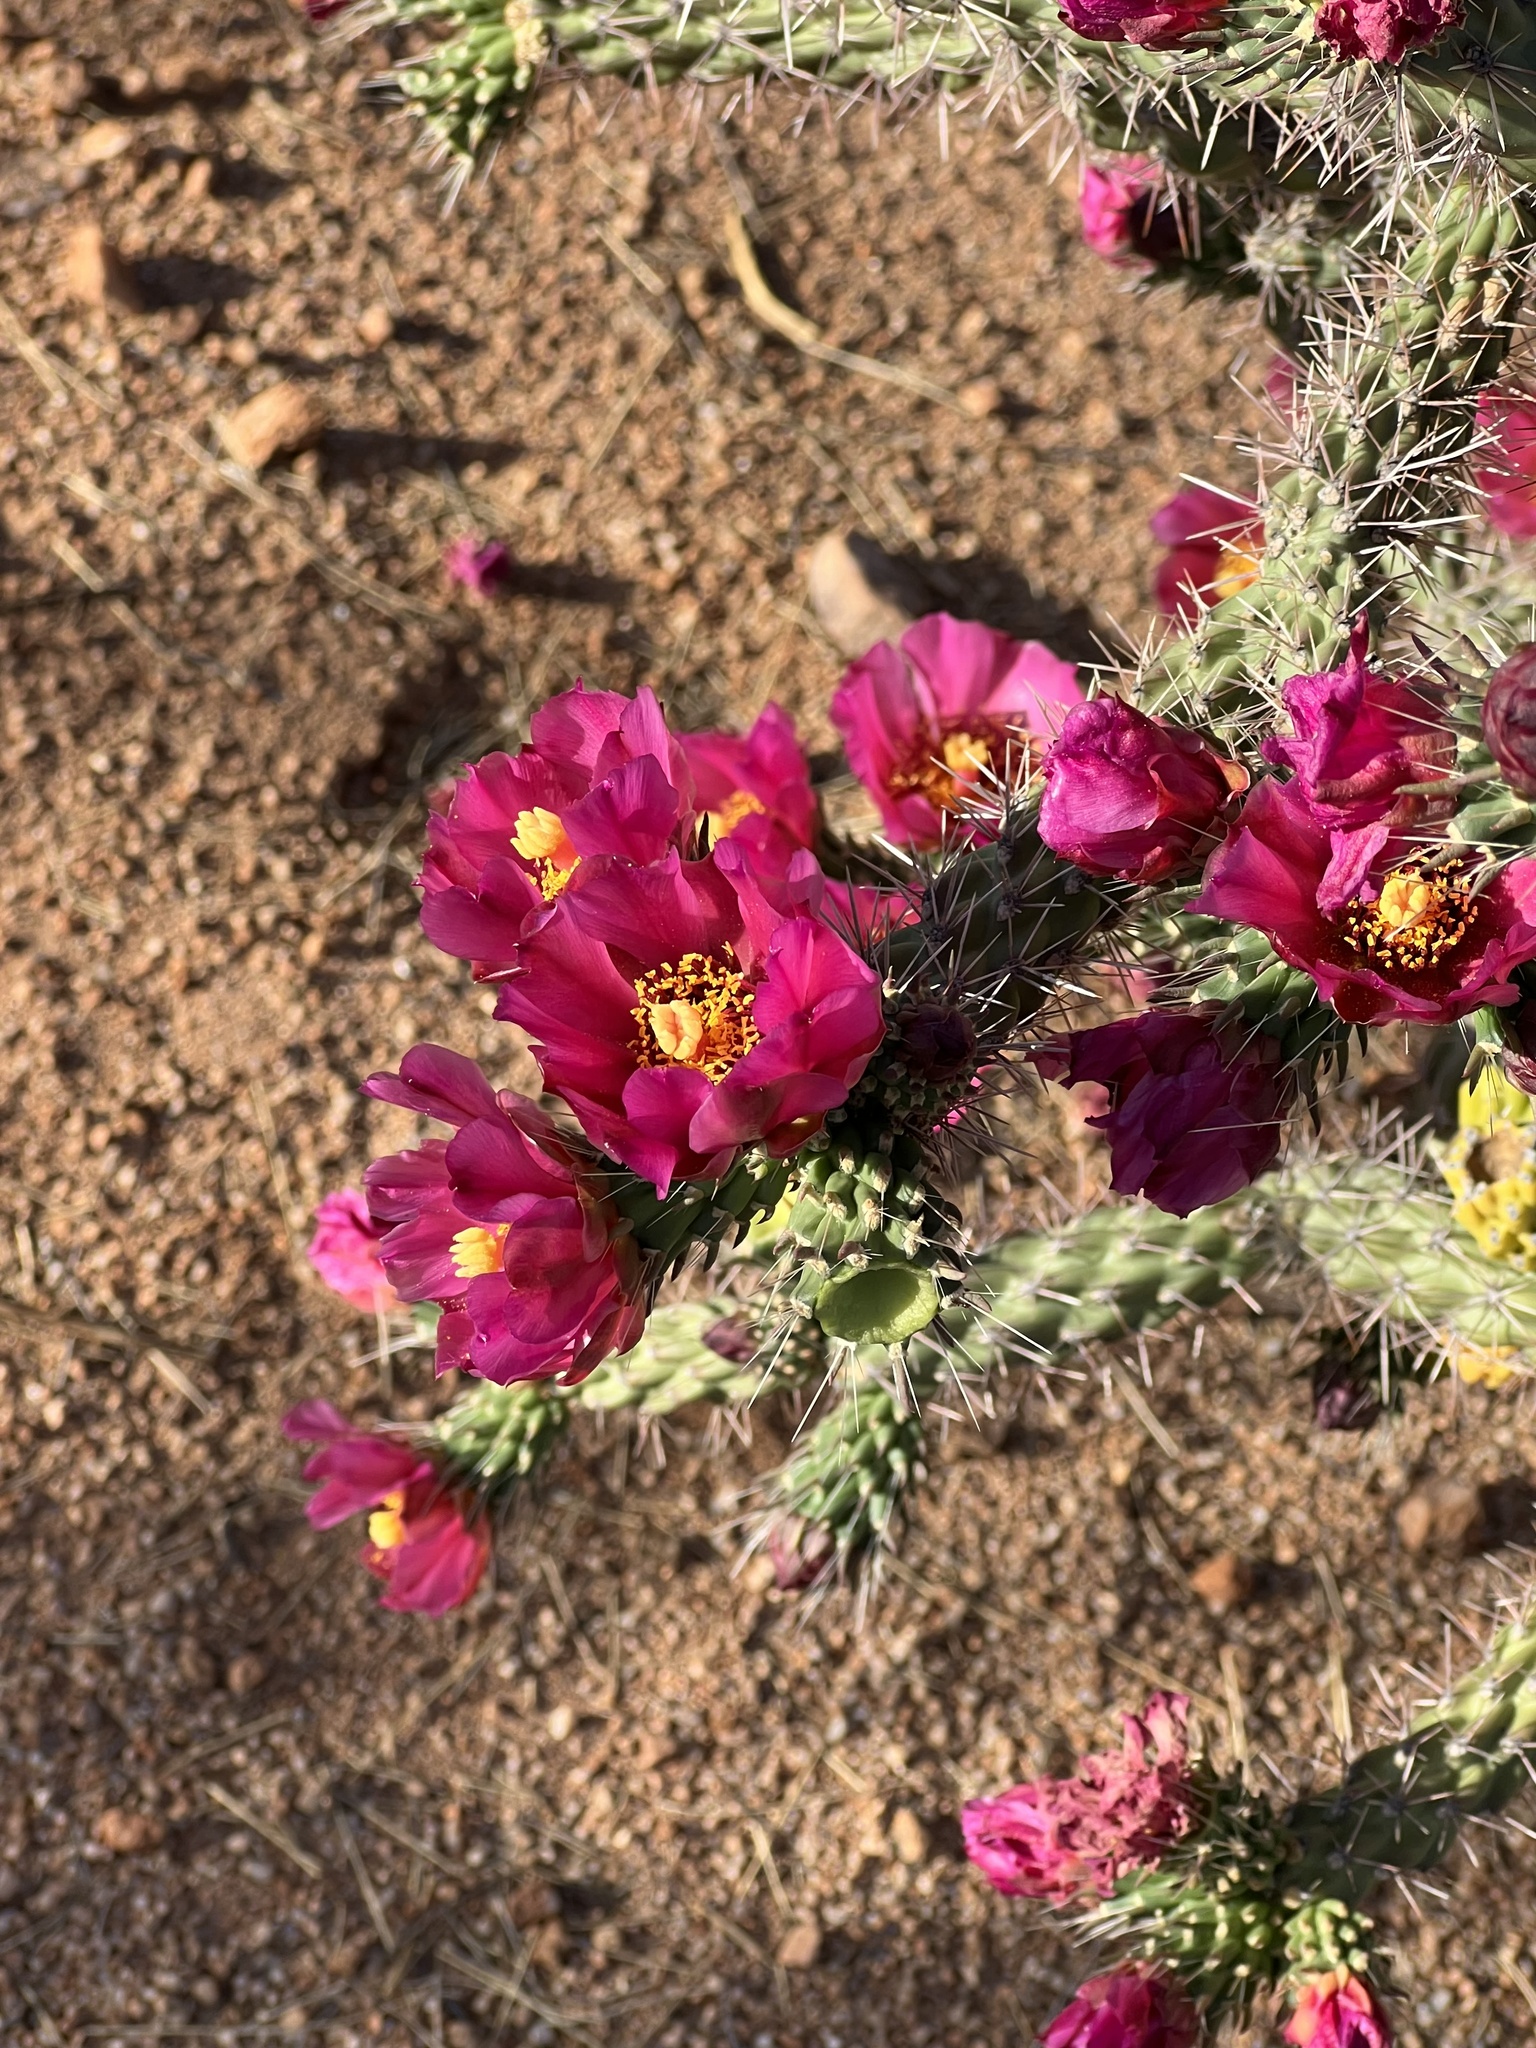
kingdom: Plantae
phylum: Tracheophyta
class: Magnoliopsida
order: Caryophyllales
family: Cactaceae
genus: Cylindropuntia
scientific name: Cylindropuntia imbricata
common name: Candelabrum cactus
